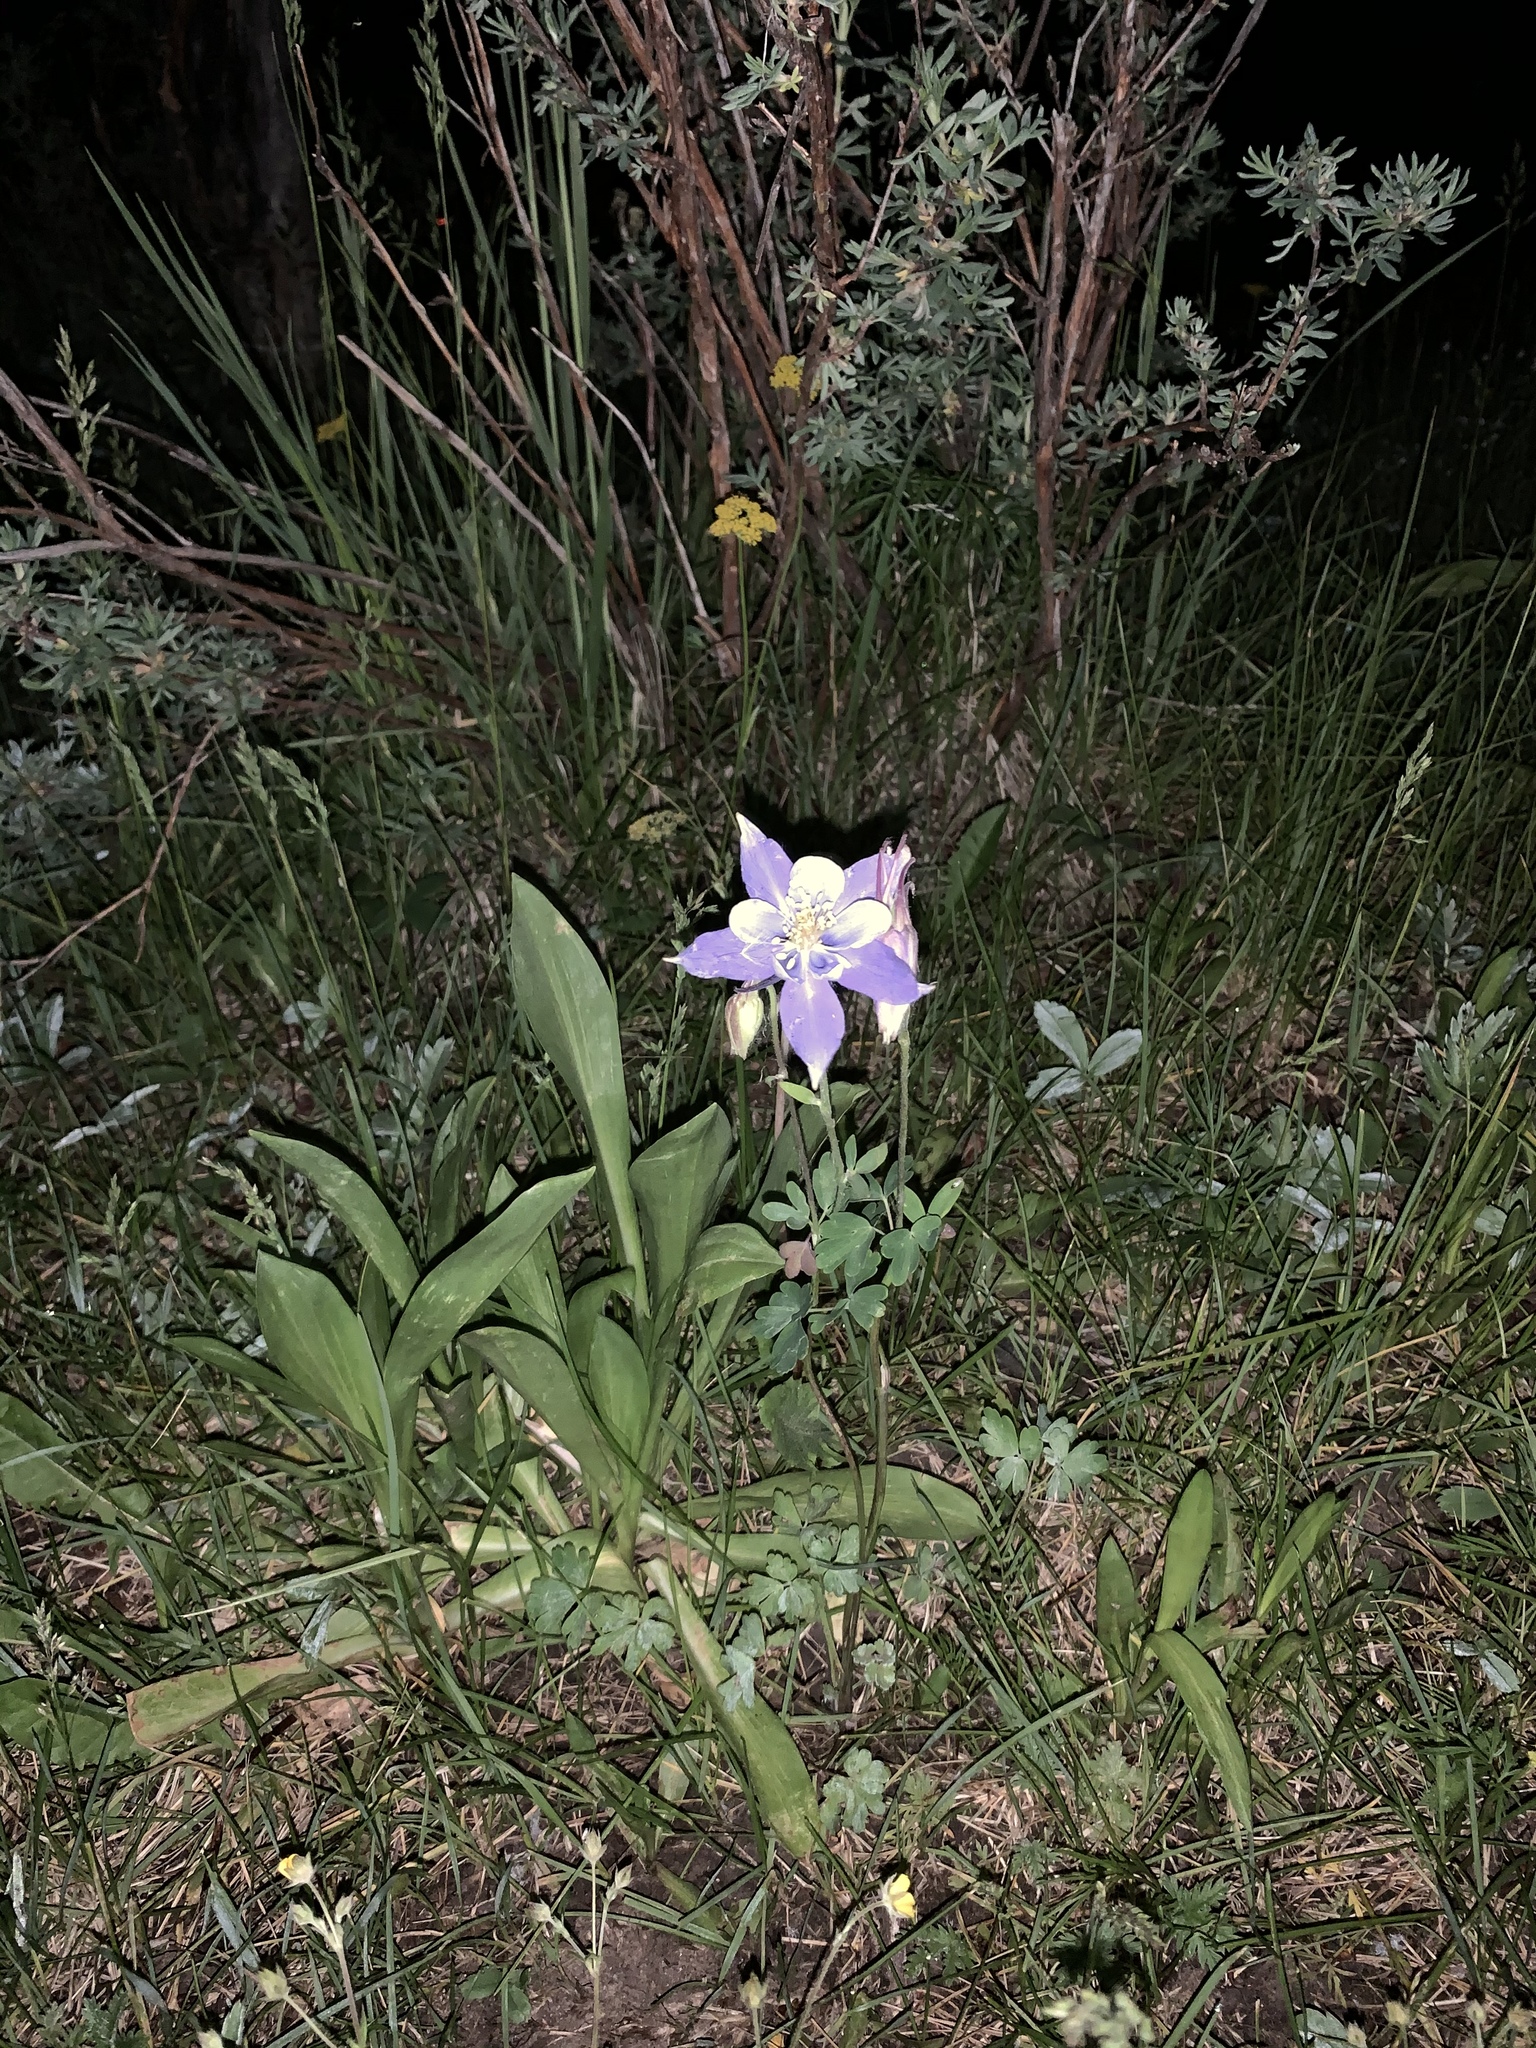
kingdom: Plantae
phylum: Tracheophyta
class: Magnoliopsida
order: Ranunculales
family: Ranunculaceae
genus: Aquilegia
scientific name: Aquilegia coerulea
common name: Rocky mountain columbine
